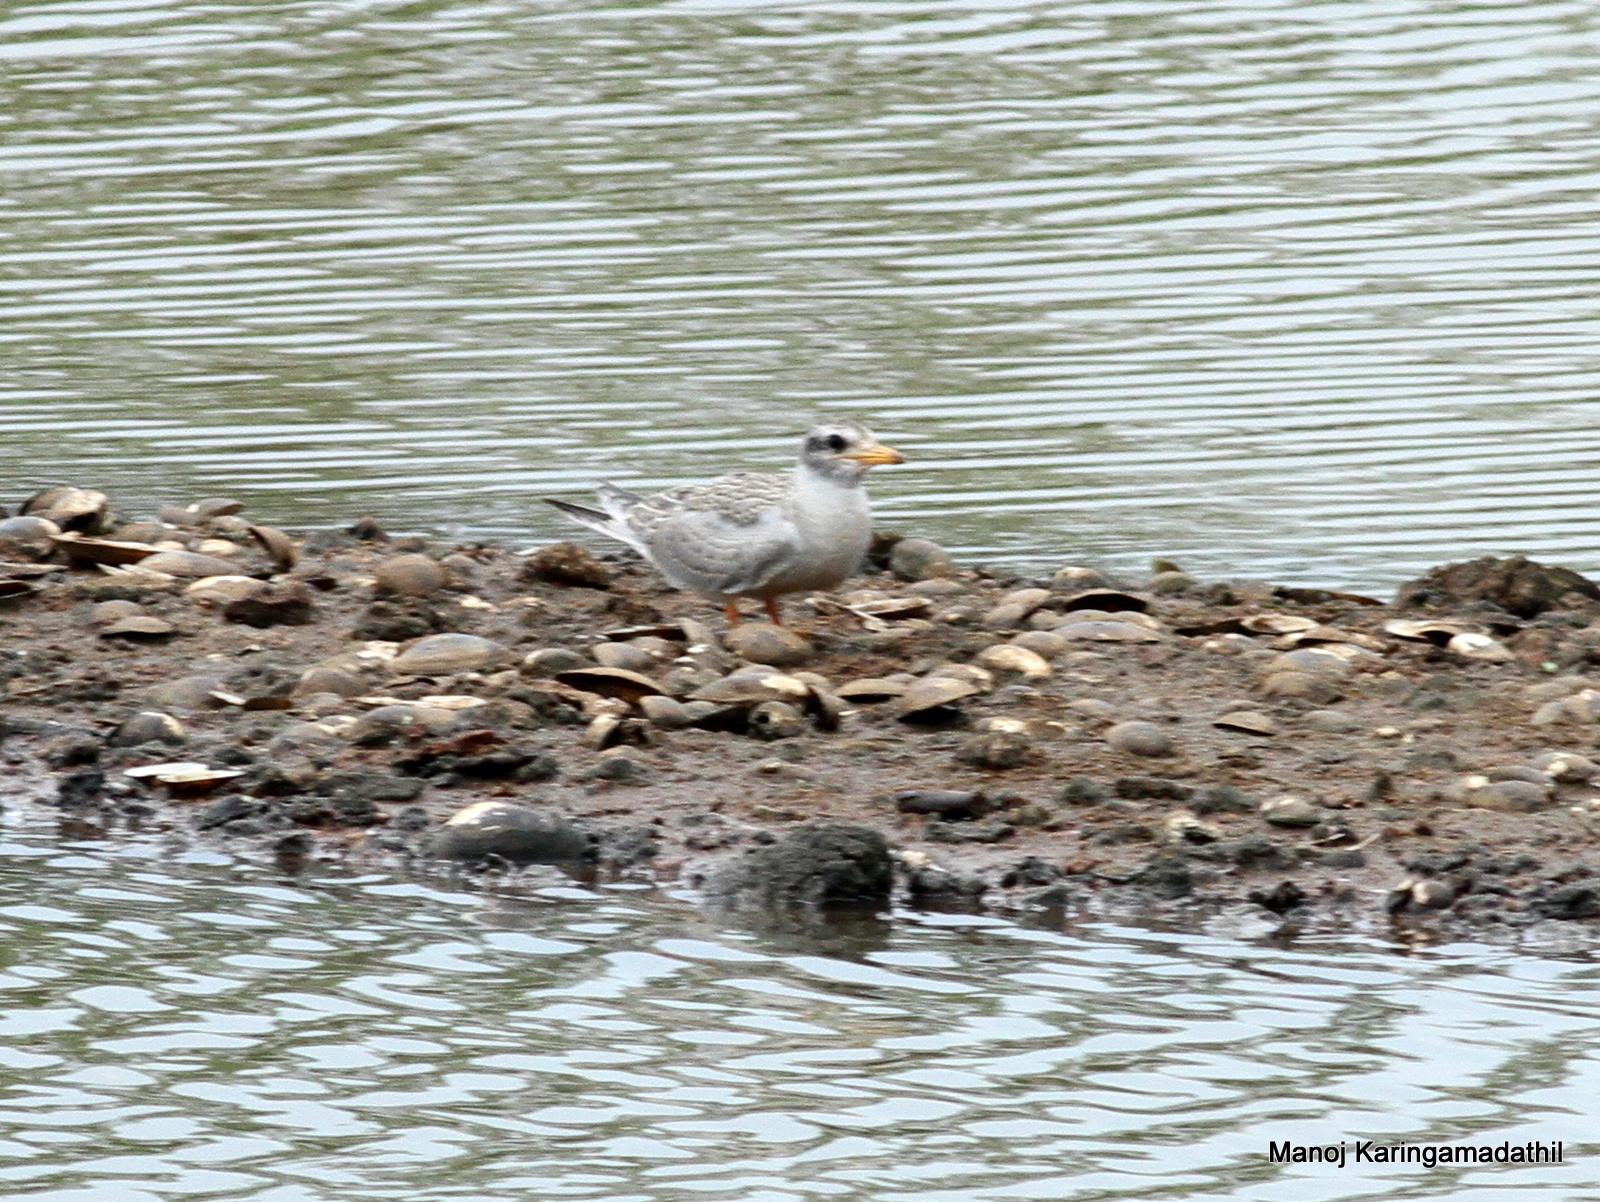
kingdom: Animalia
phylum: Chordata
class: Aves
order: Charadriiformes
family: Laridae
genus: Sterna
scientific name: Sterna aurantia
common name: River tern
